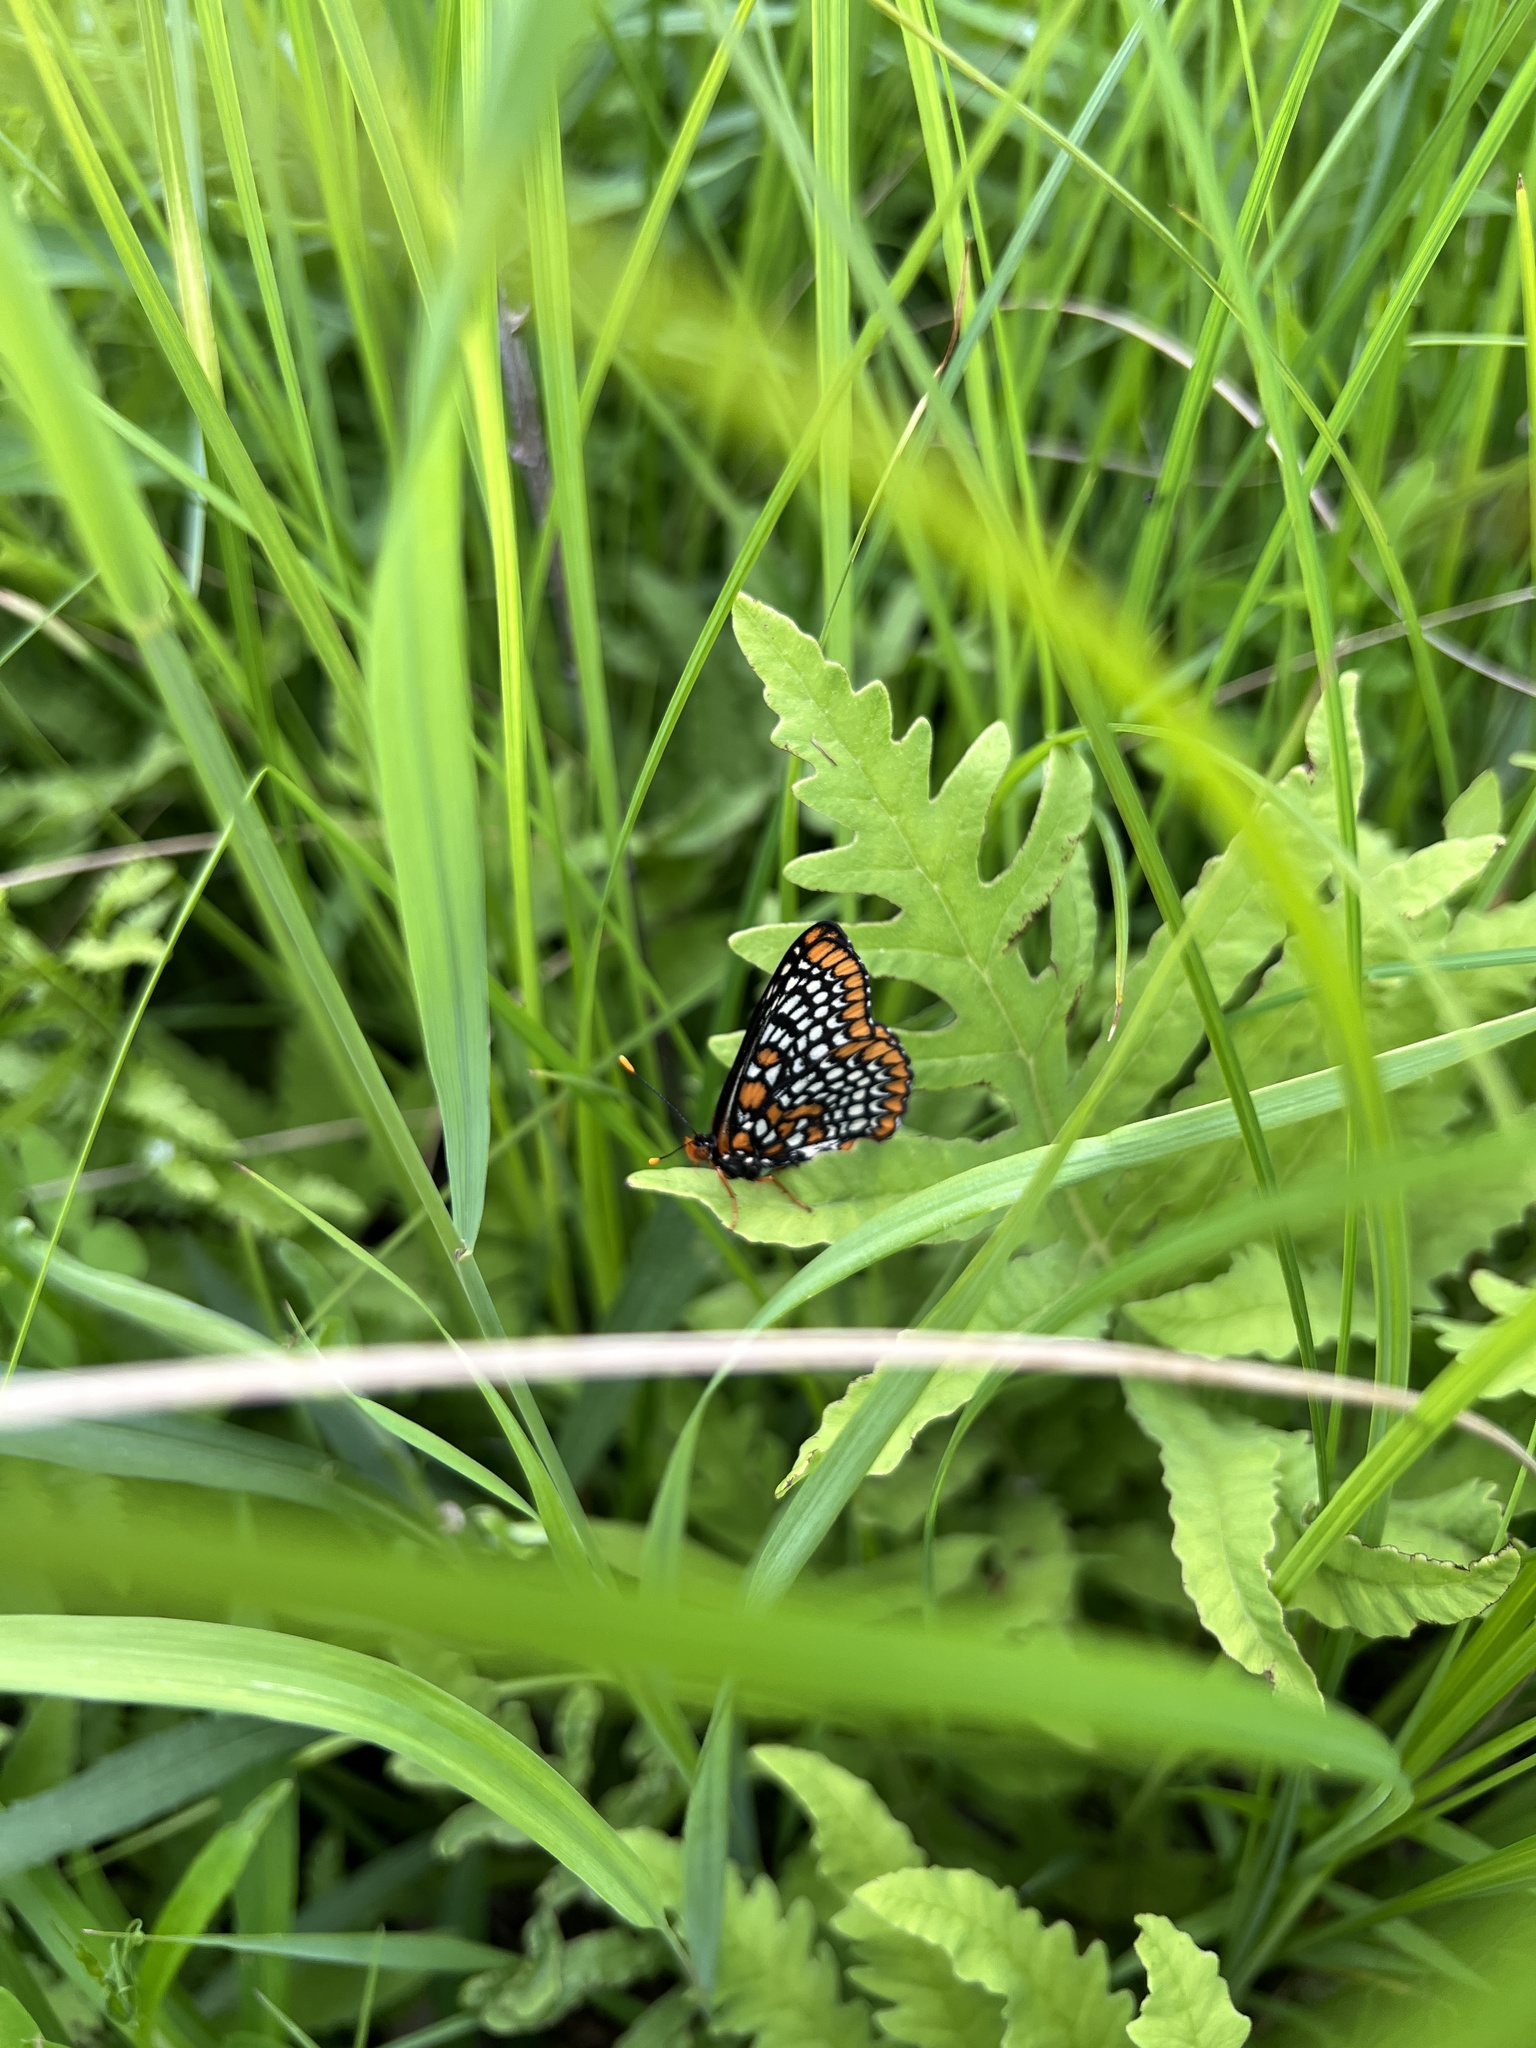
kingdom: Animalia
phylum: Arthropoda
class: Insecta
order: Lepidoptera
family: Nymphalidae
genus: Euphydryas
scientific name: Euphydryas phaeton
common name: Baltimore checkerspot
